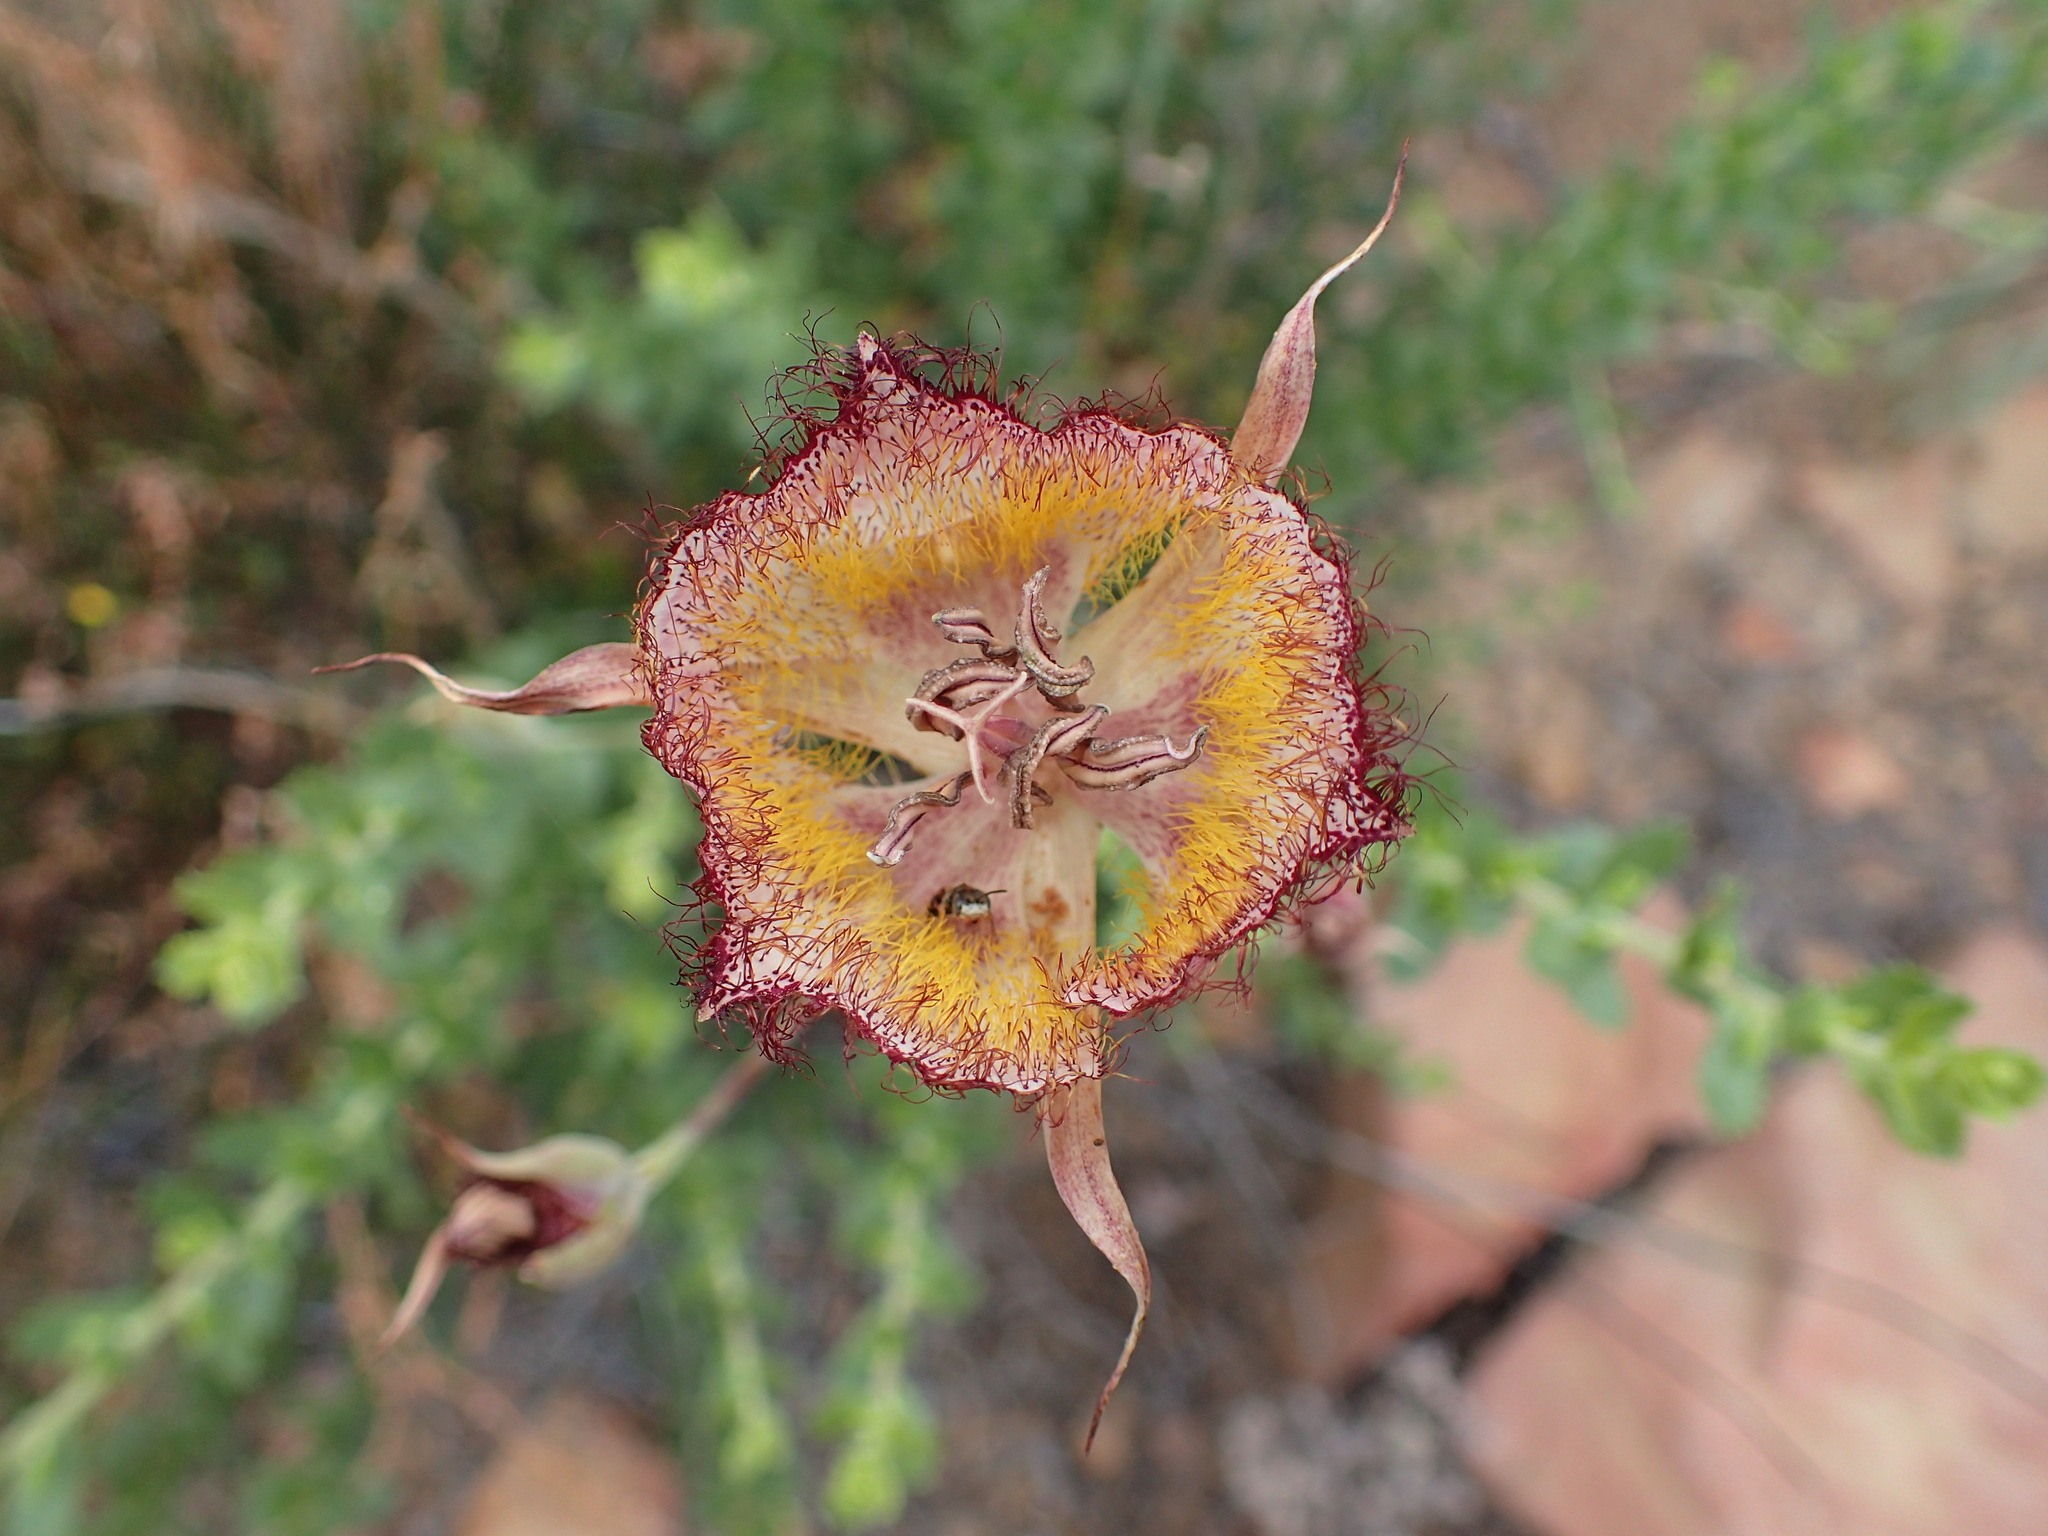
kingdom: Plantae
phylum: Tracheophyta
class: Liliopsida
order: Liliales
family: Liliaceae
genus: Calochortus
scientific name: Calochortus fimbriatus
